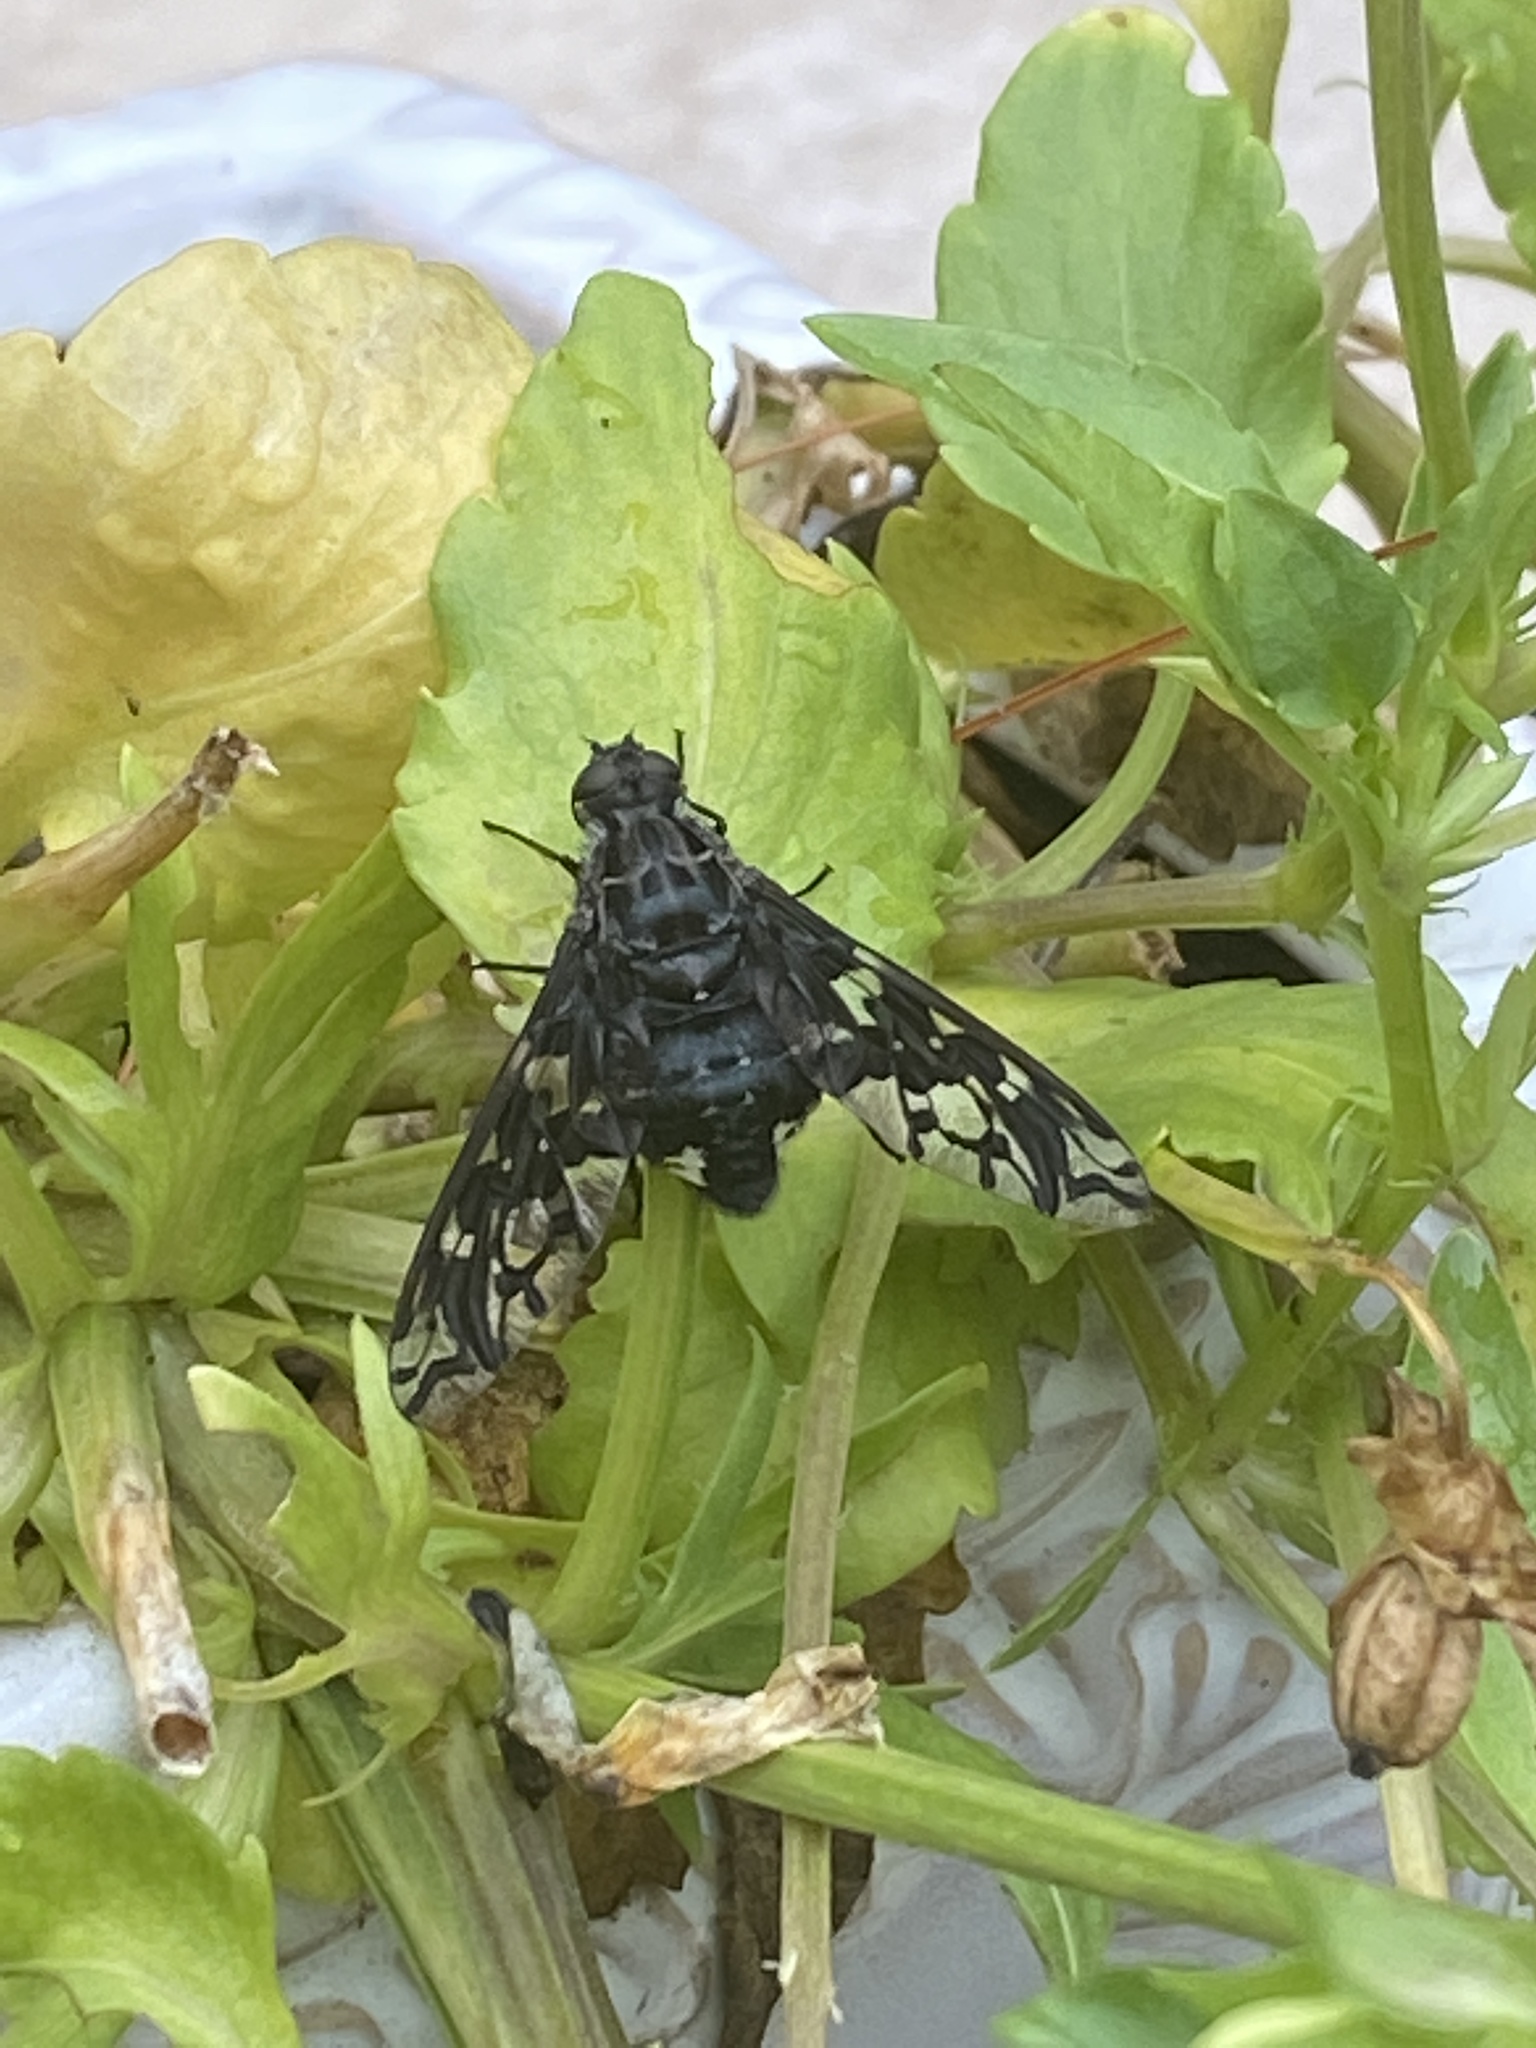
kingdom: Animalia
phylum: Arthropoda
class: Insecta
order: Diptera
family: Bombyliidae
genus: Xenox
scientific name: Xenox tigrinus
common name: Tiger bee fly
